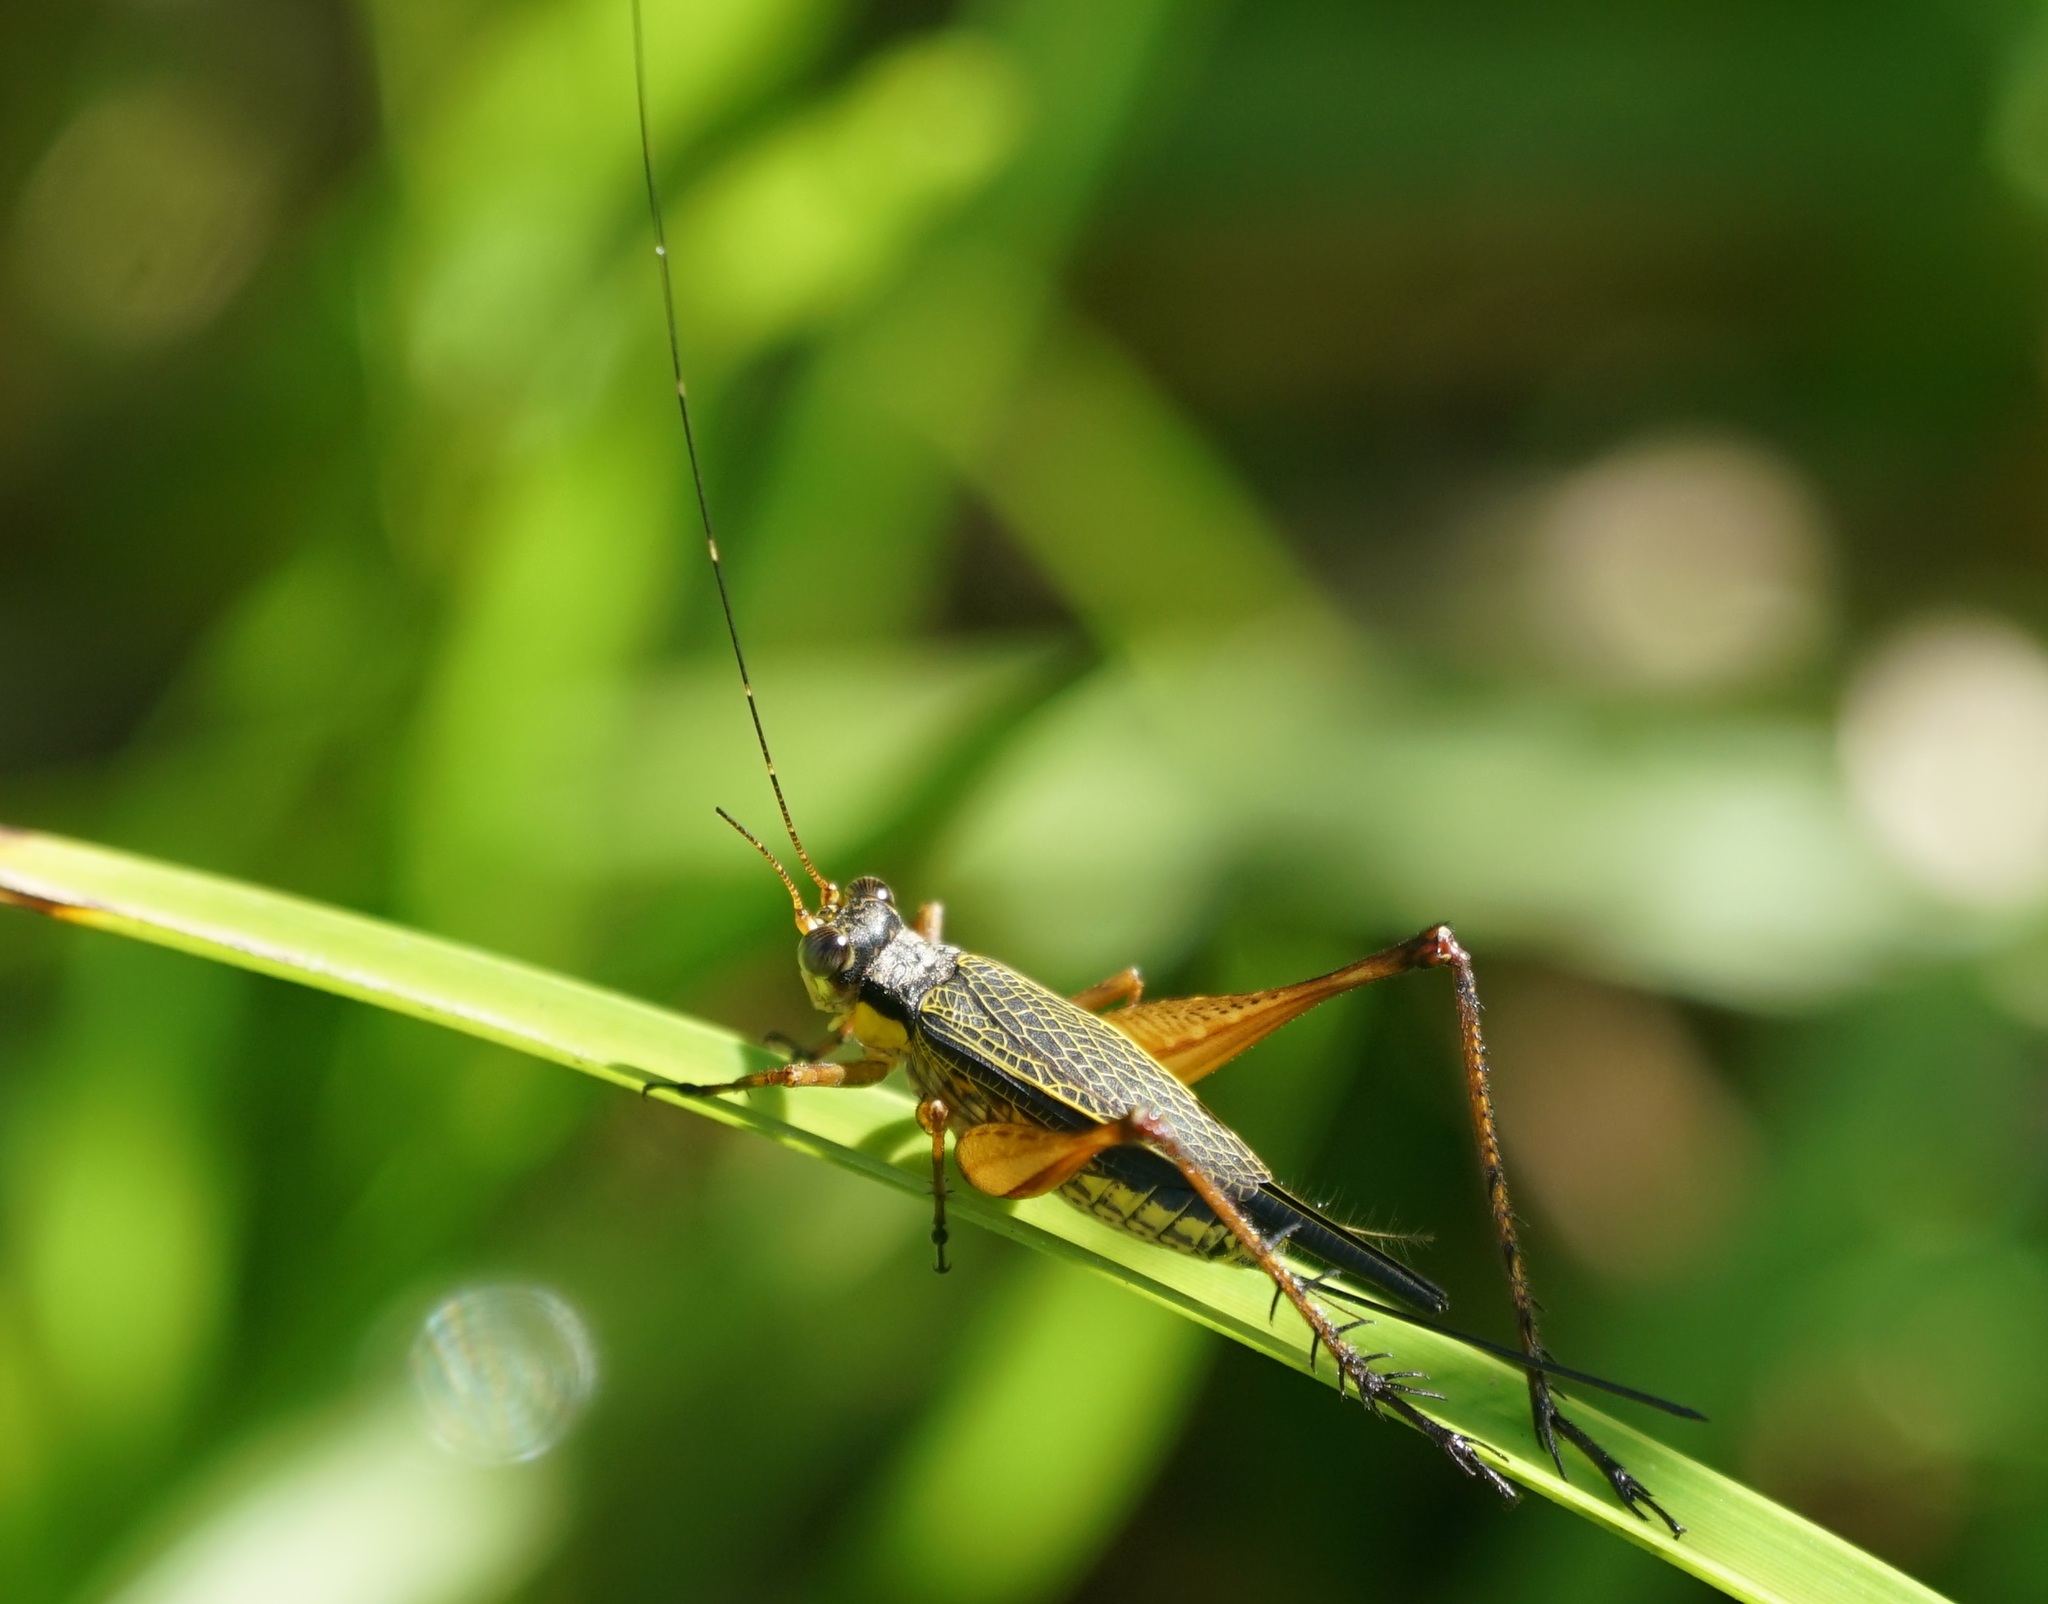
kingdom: Animalia
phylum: Arthropoda
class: Insecta
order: Orthoptera
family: Gryllidae
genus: Nisitrus
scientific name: Nisitrus vittatus
